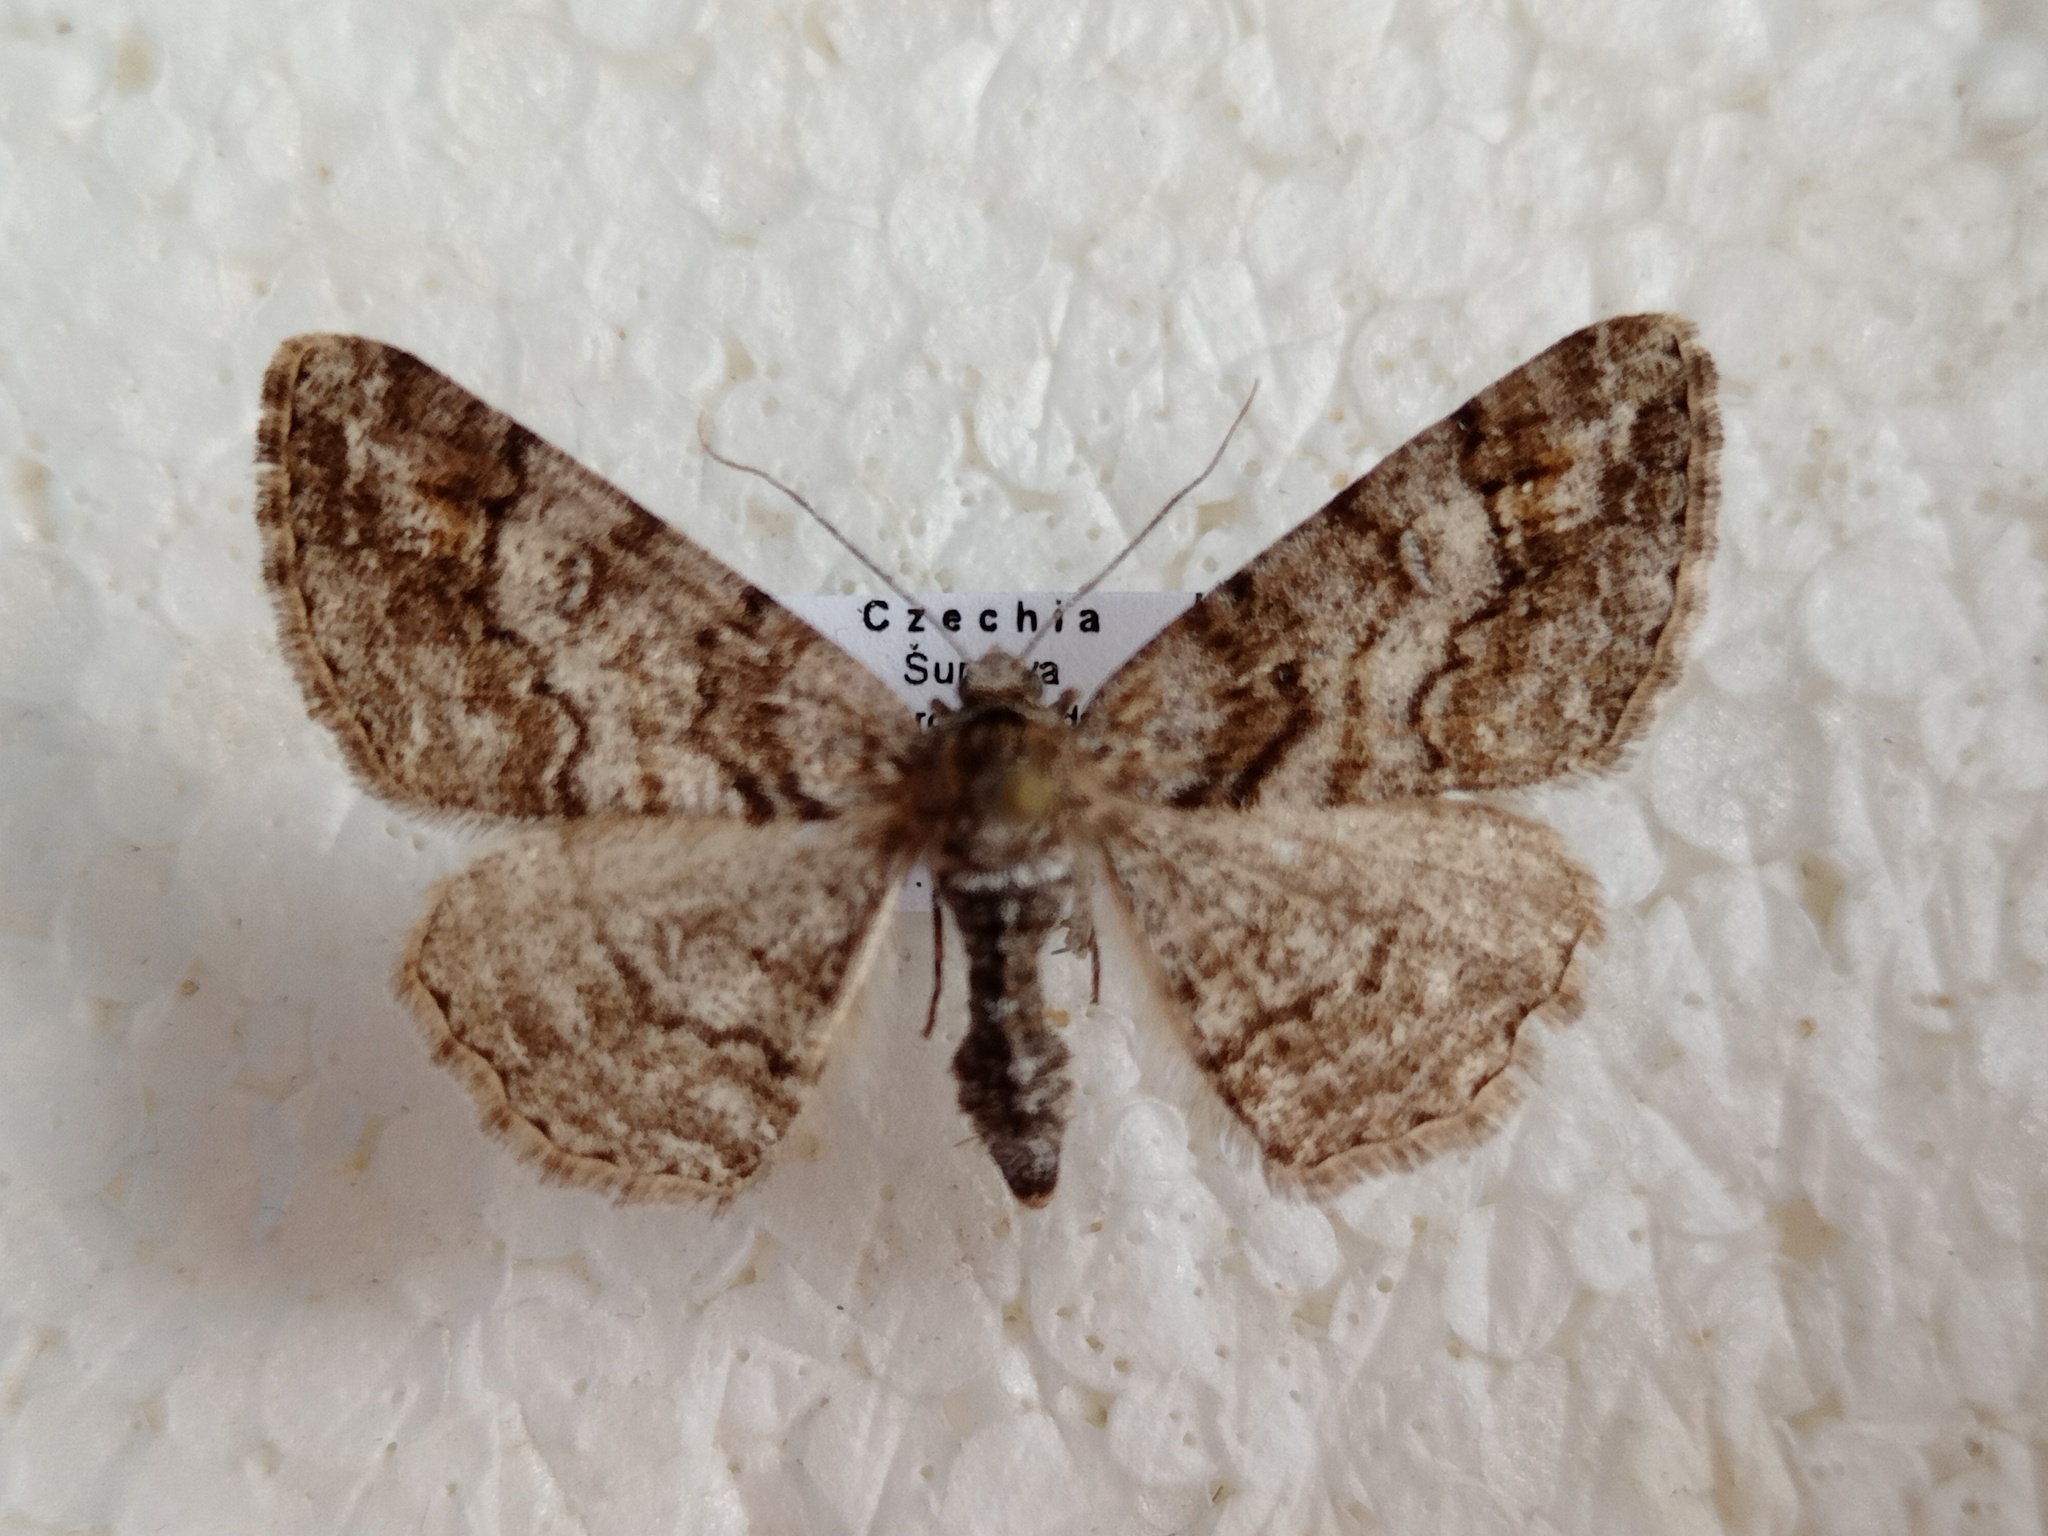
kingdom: Animalia
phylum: Arthropoda
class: Insecta
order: Lepidoptera
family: Geometridae
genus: Cleora
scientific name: Cleora cinctaria
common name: Ringed carpet
